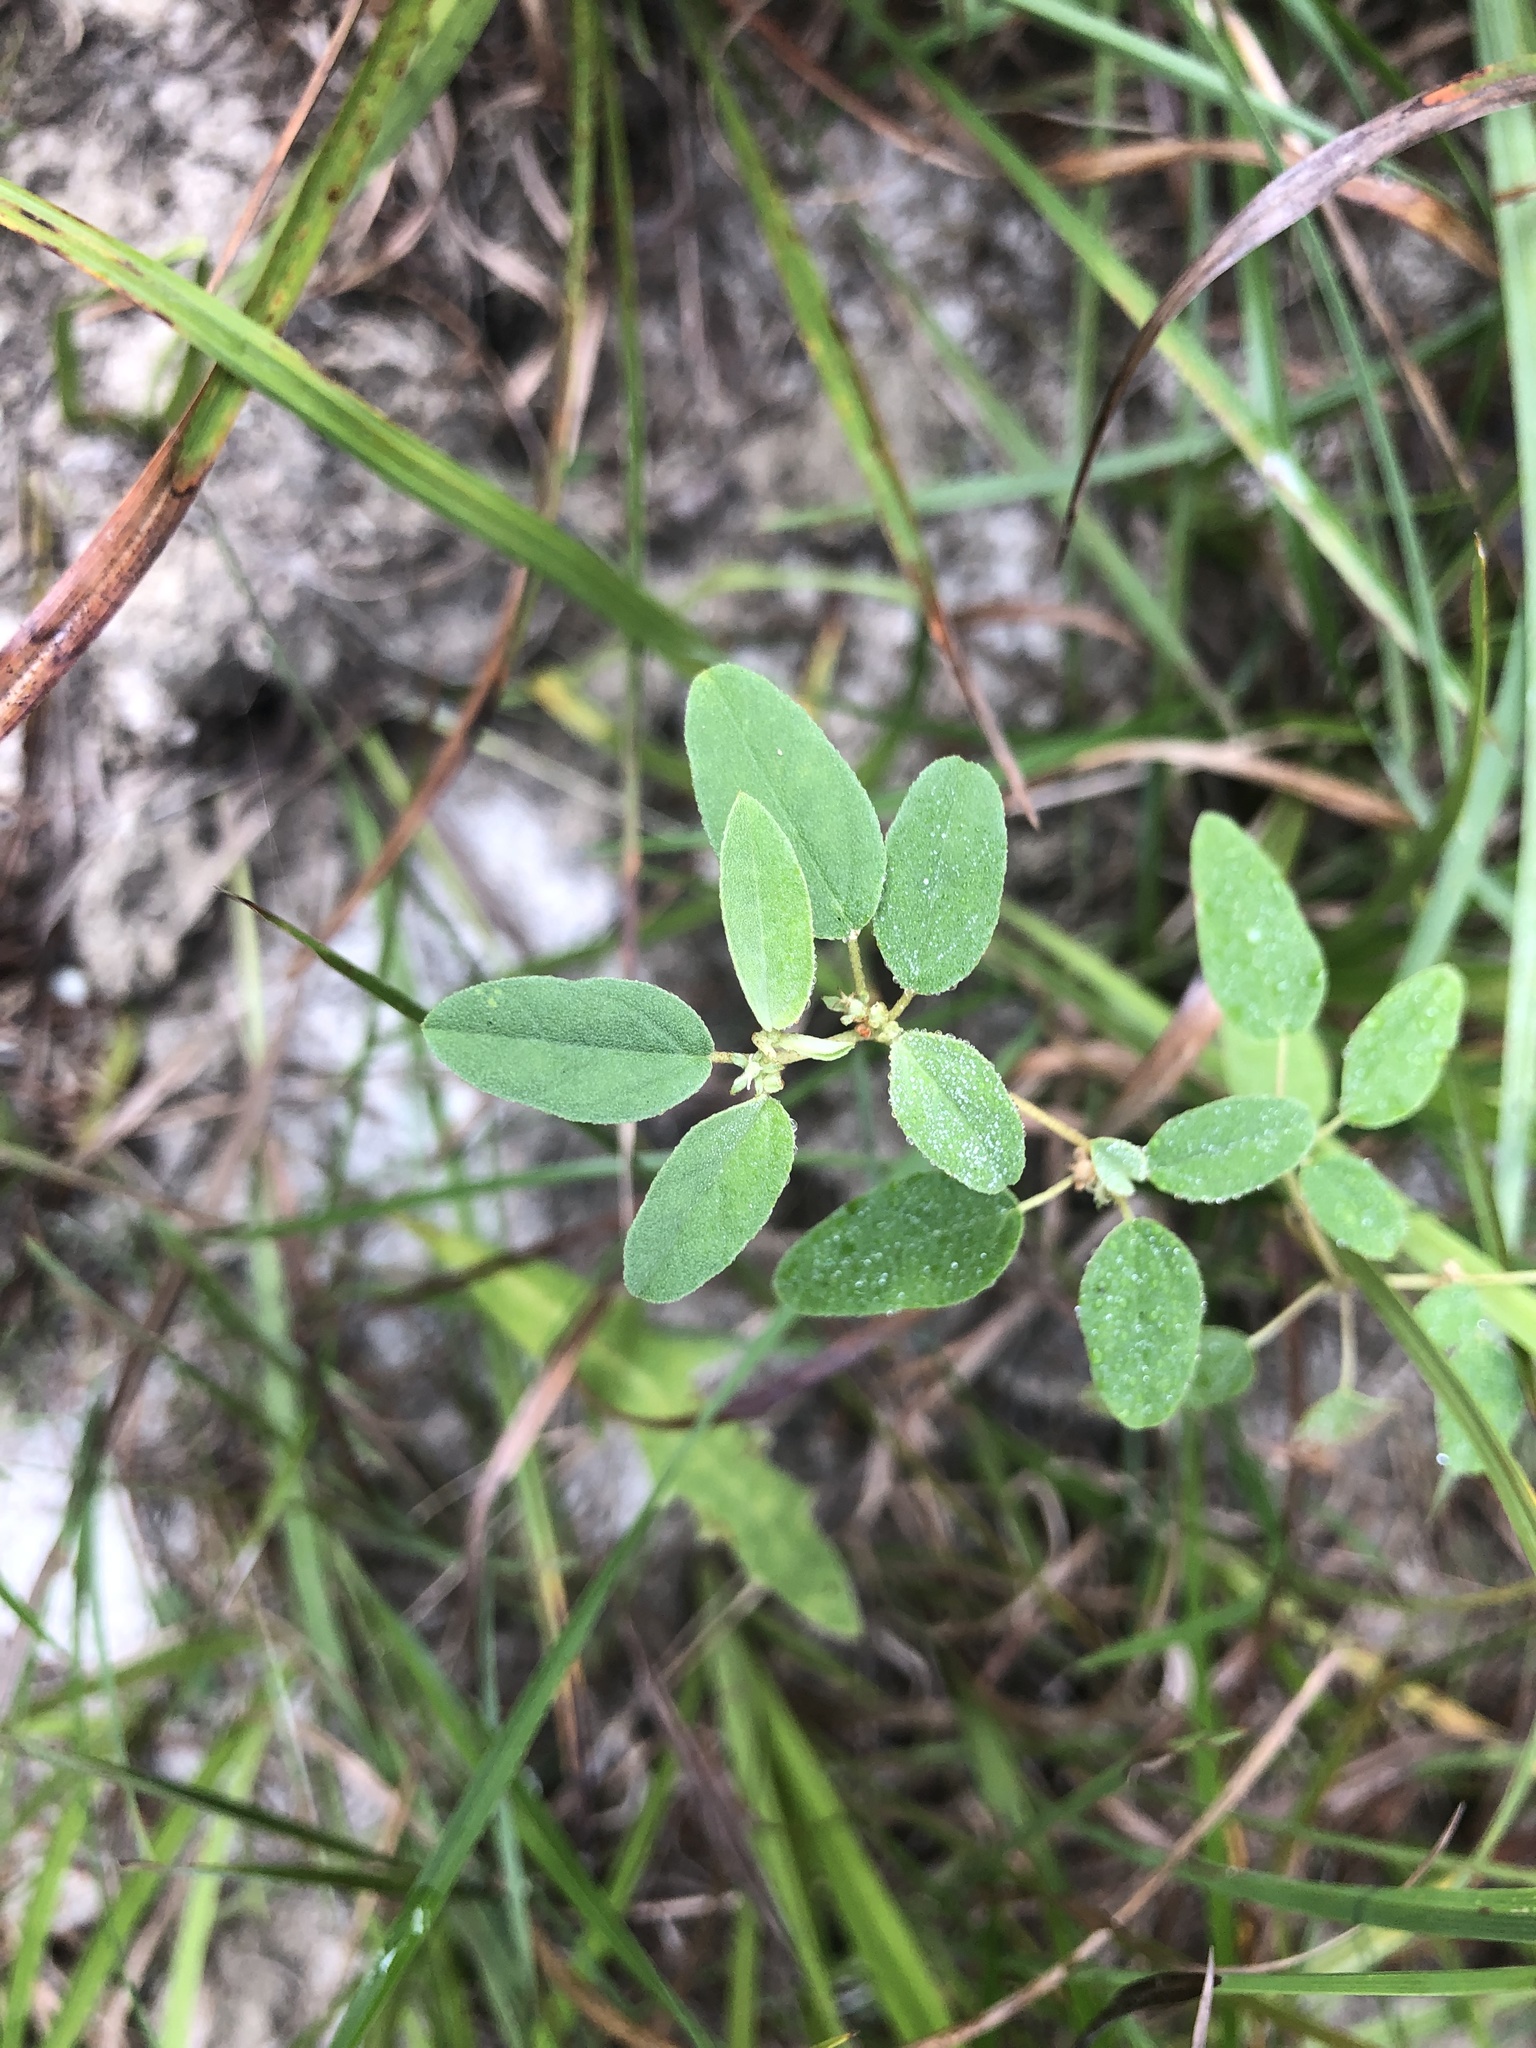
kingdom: Plantae
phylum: Tracheophyta
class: Magnoliopsida
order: Malpighiales
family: Euphorbiaceae
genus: Croton
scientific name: Croton monanthogynus
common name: One-seed croton
